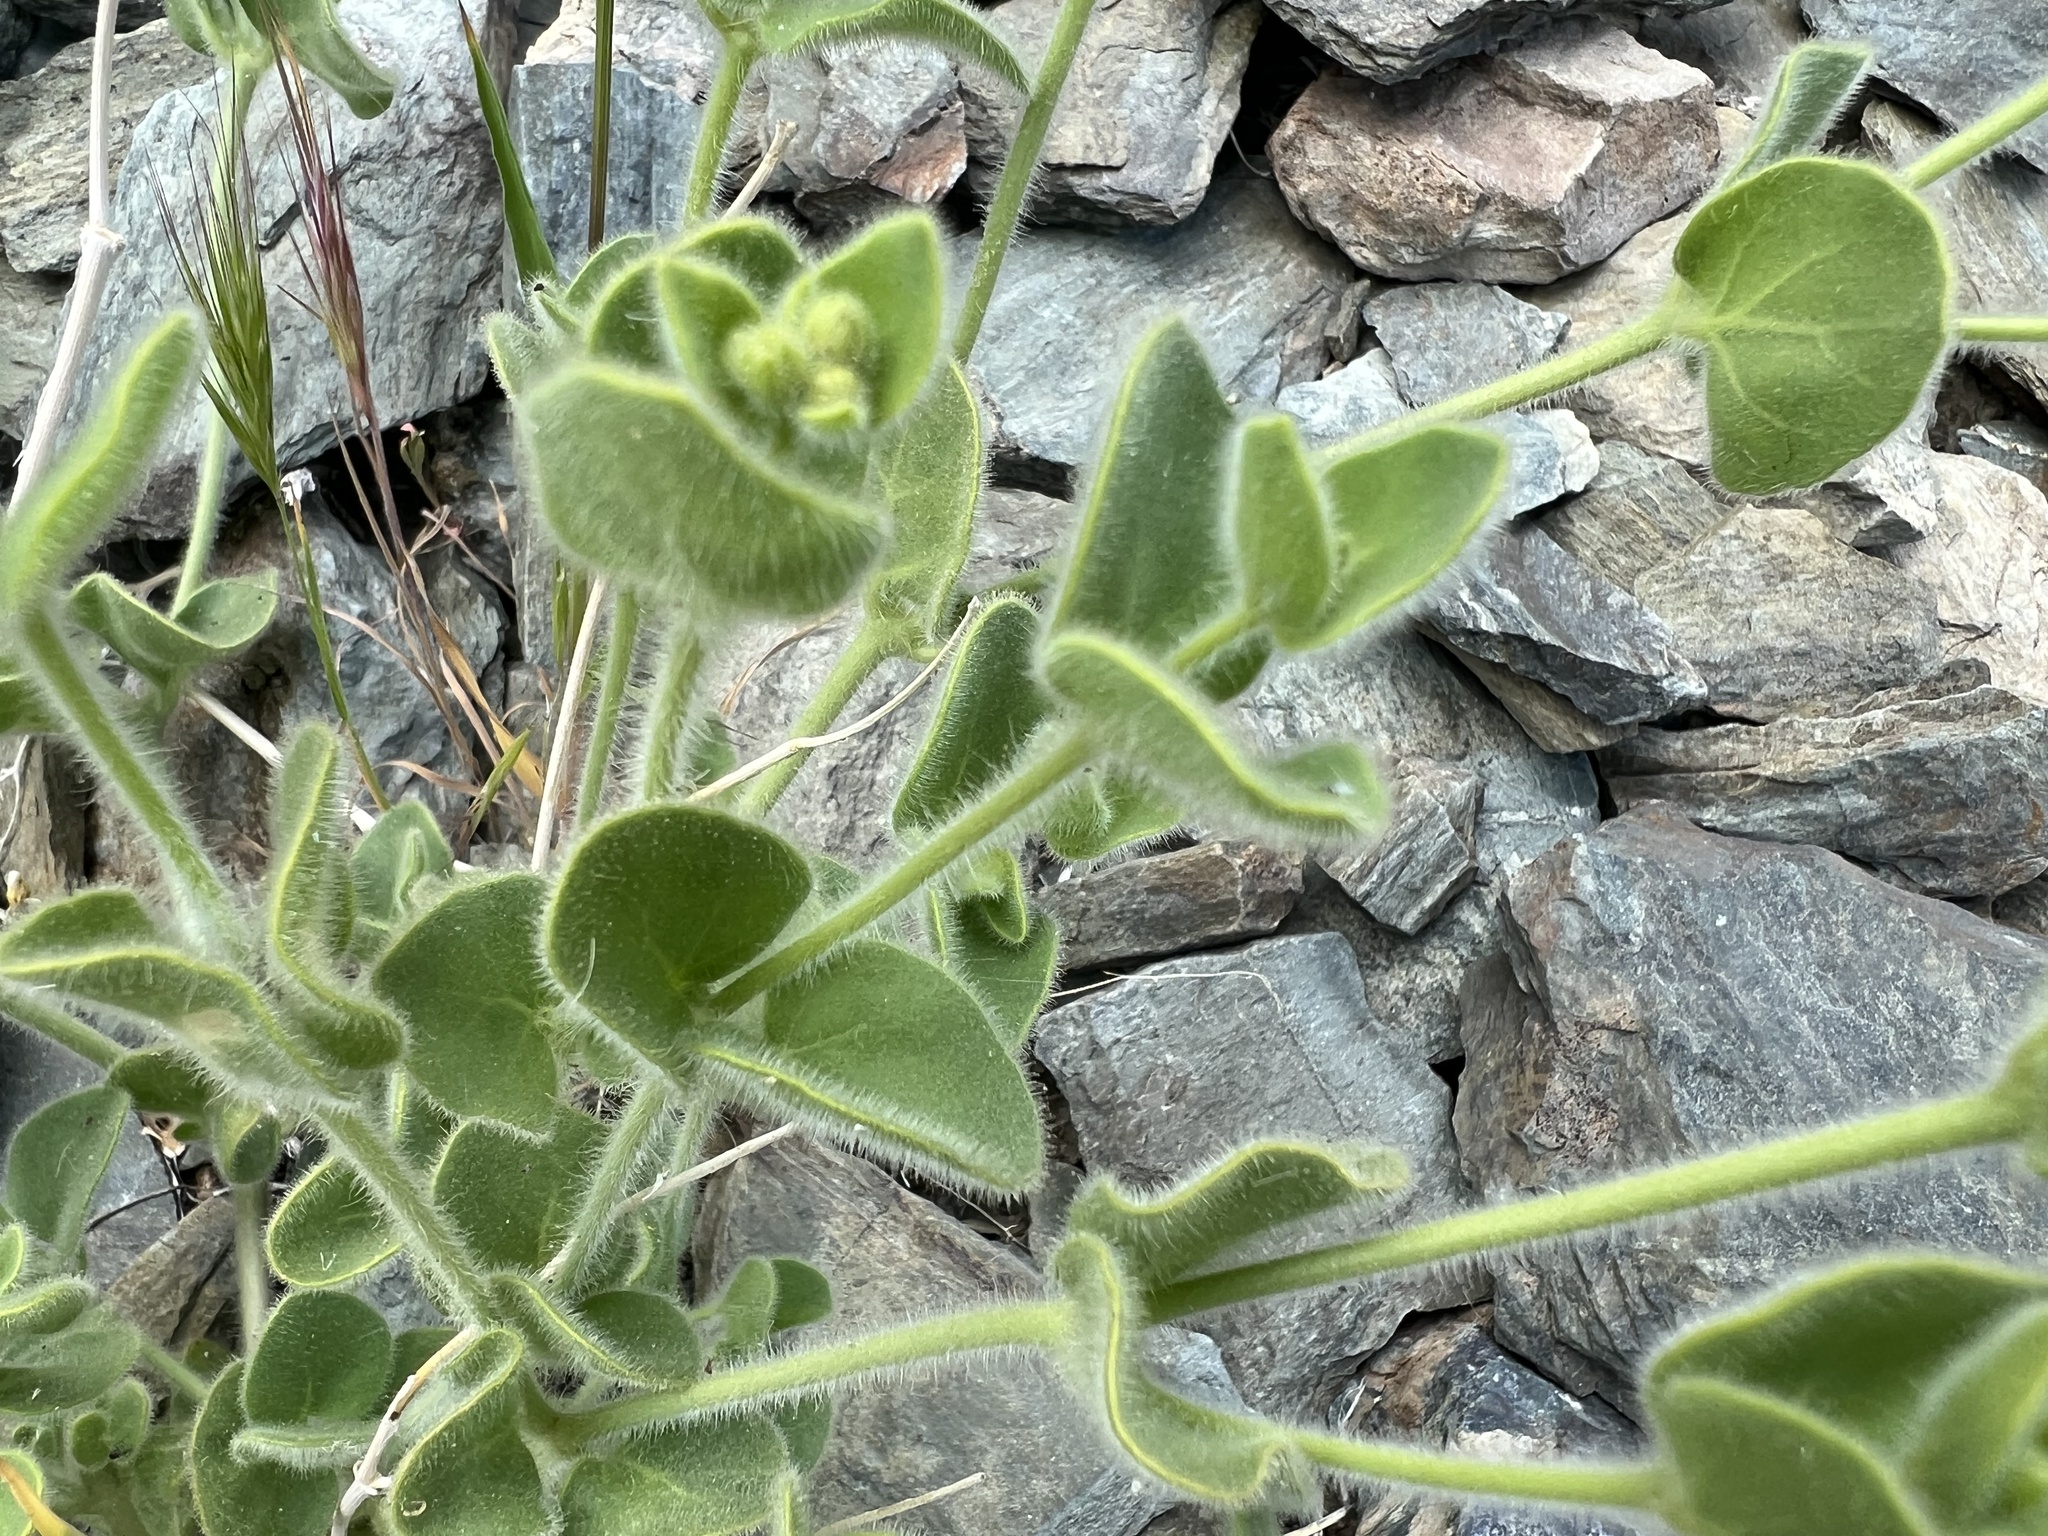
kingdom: Plantae
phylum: Tracheophyta
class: Magnoliopsida
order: Caryophyllales
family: Nyctaginaceae
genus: Mirabilis
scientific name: Mirabilis laevis
